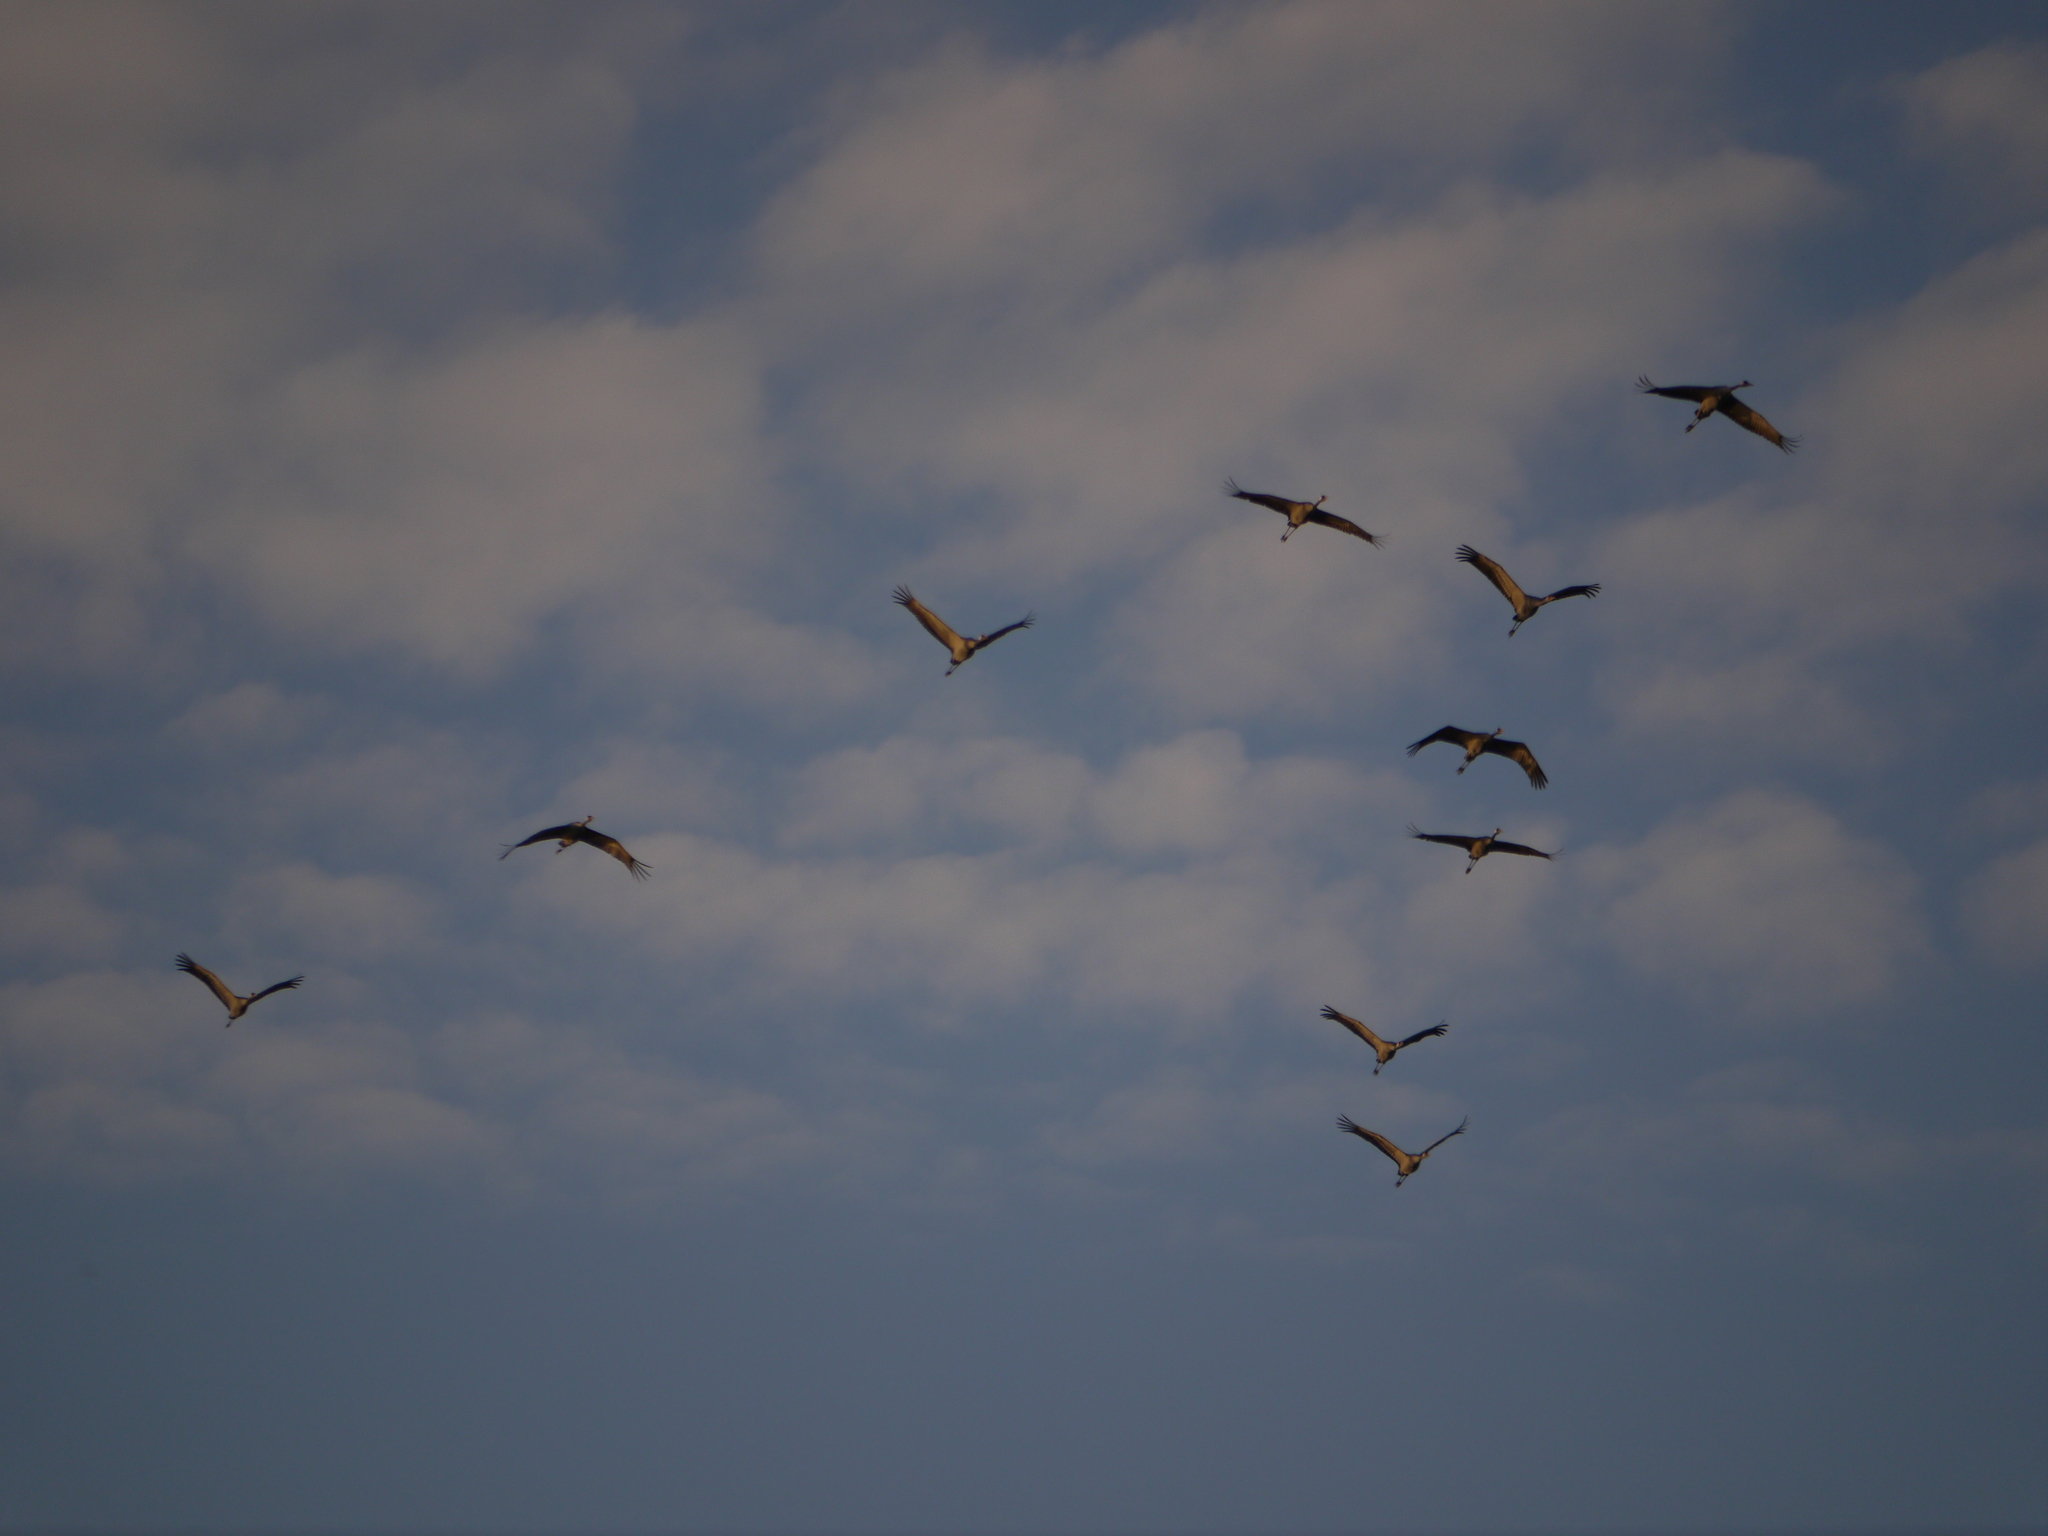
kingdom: Animalia
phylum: Chordata
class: Aves
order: Gruiformes
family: Gruidae
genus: Grus
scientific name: Grus grus
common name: Common crane
